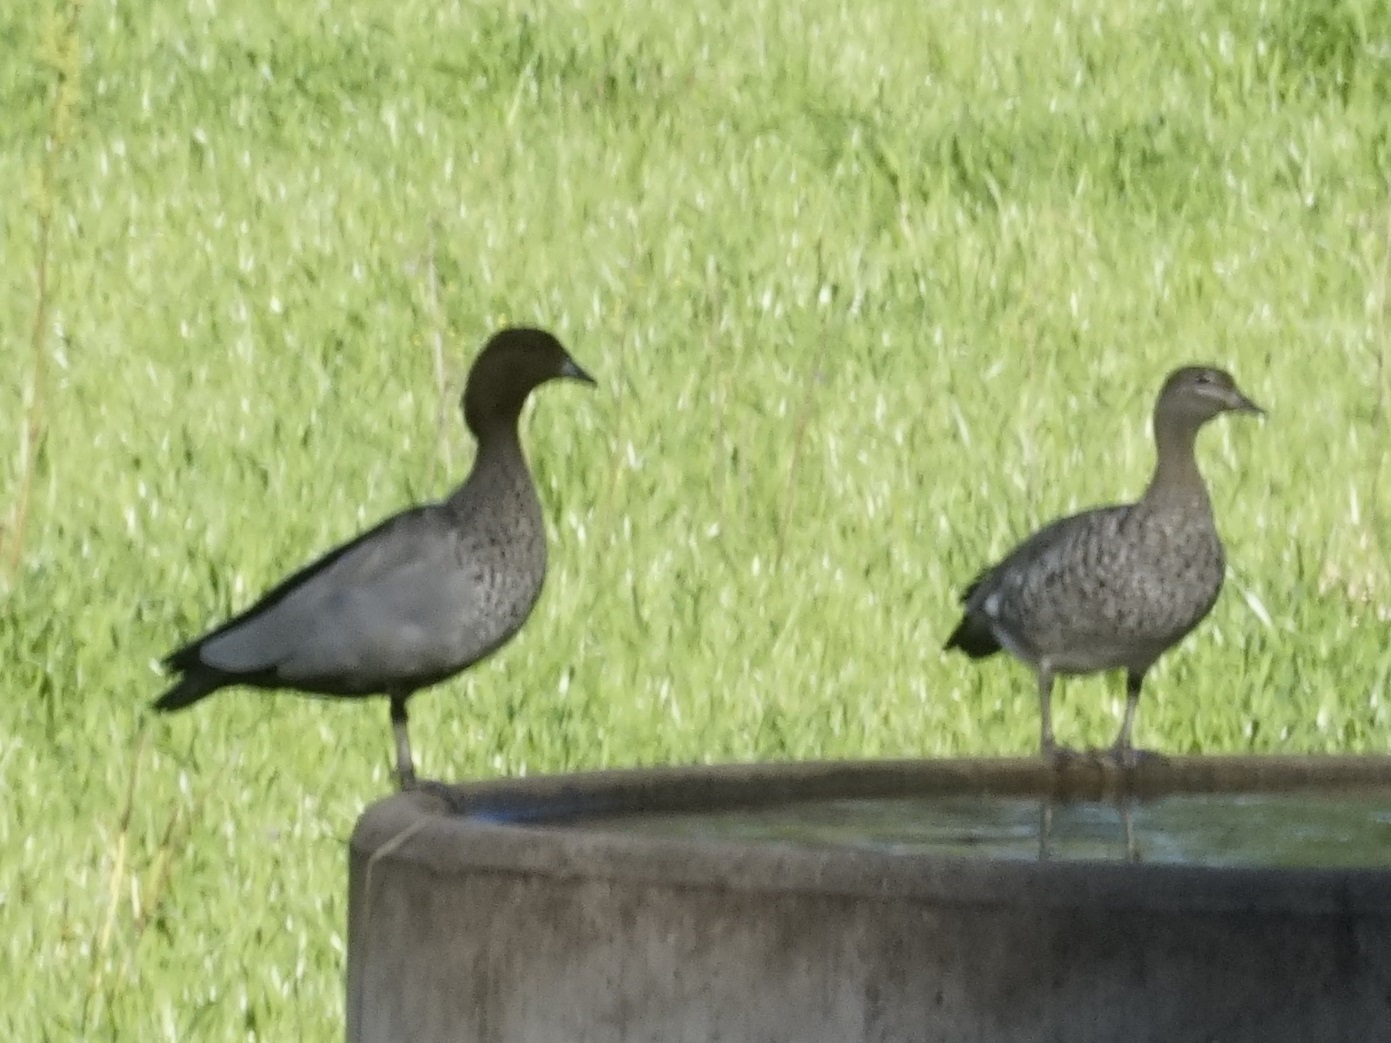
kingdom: Animalia
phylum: Chordata
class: Aves
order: Anseriformes
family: Anatidae
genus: Chenonetta
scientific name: Chenonetta jubata
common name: Maned duck
